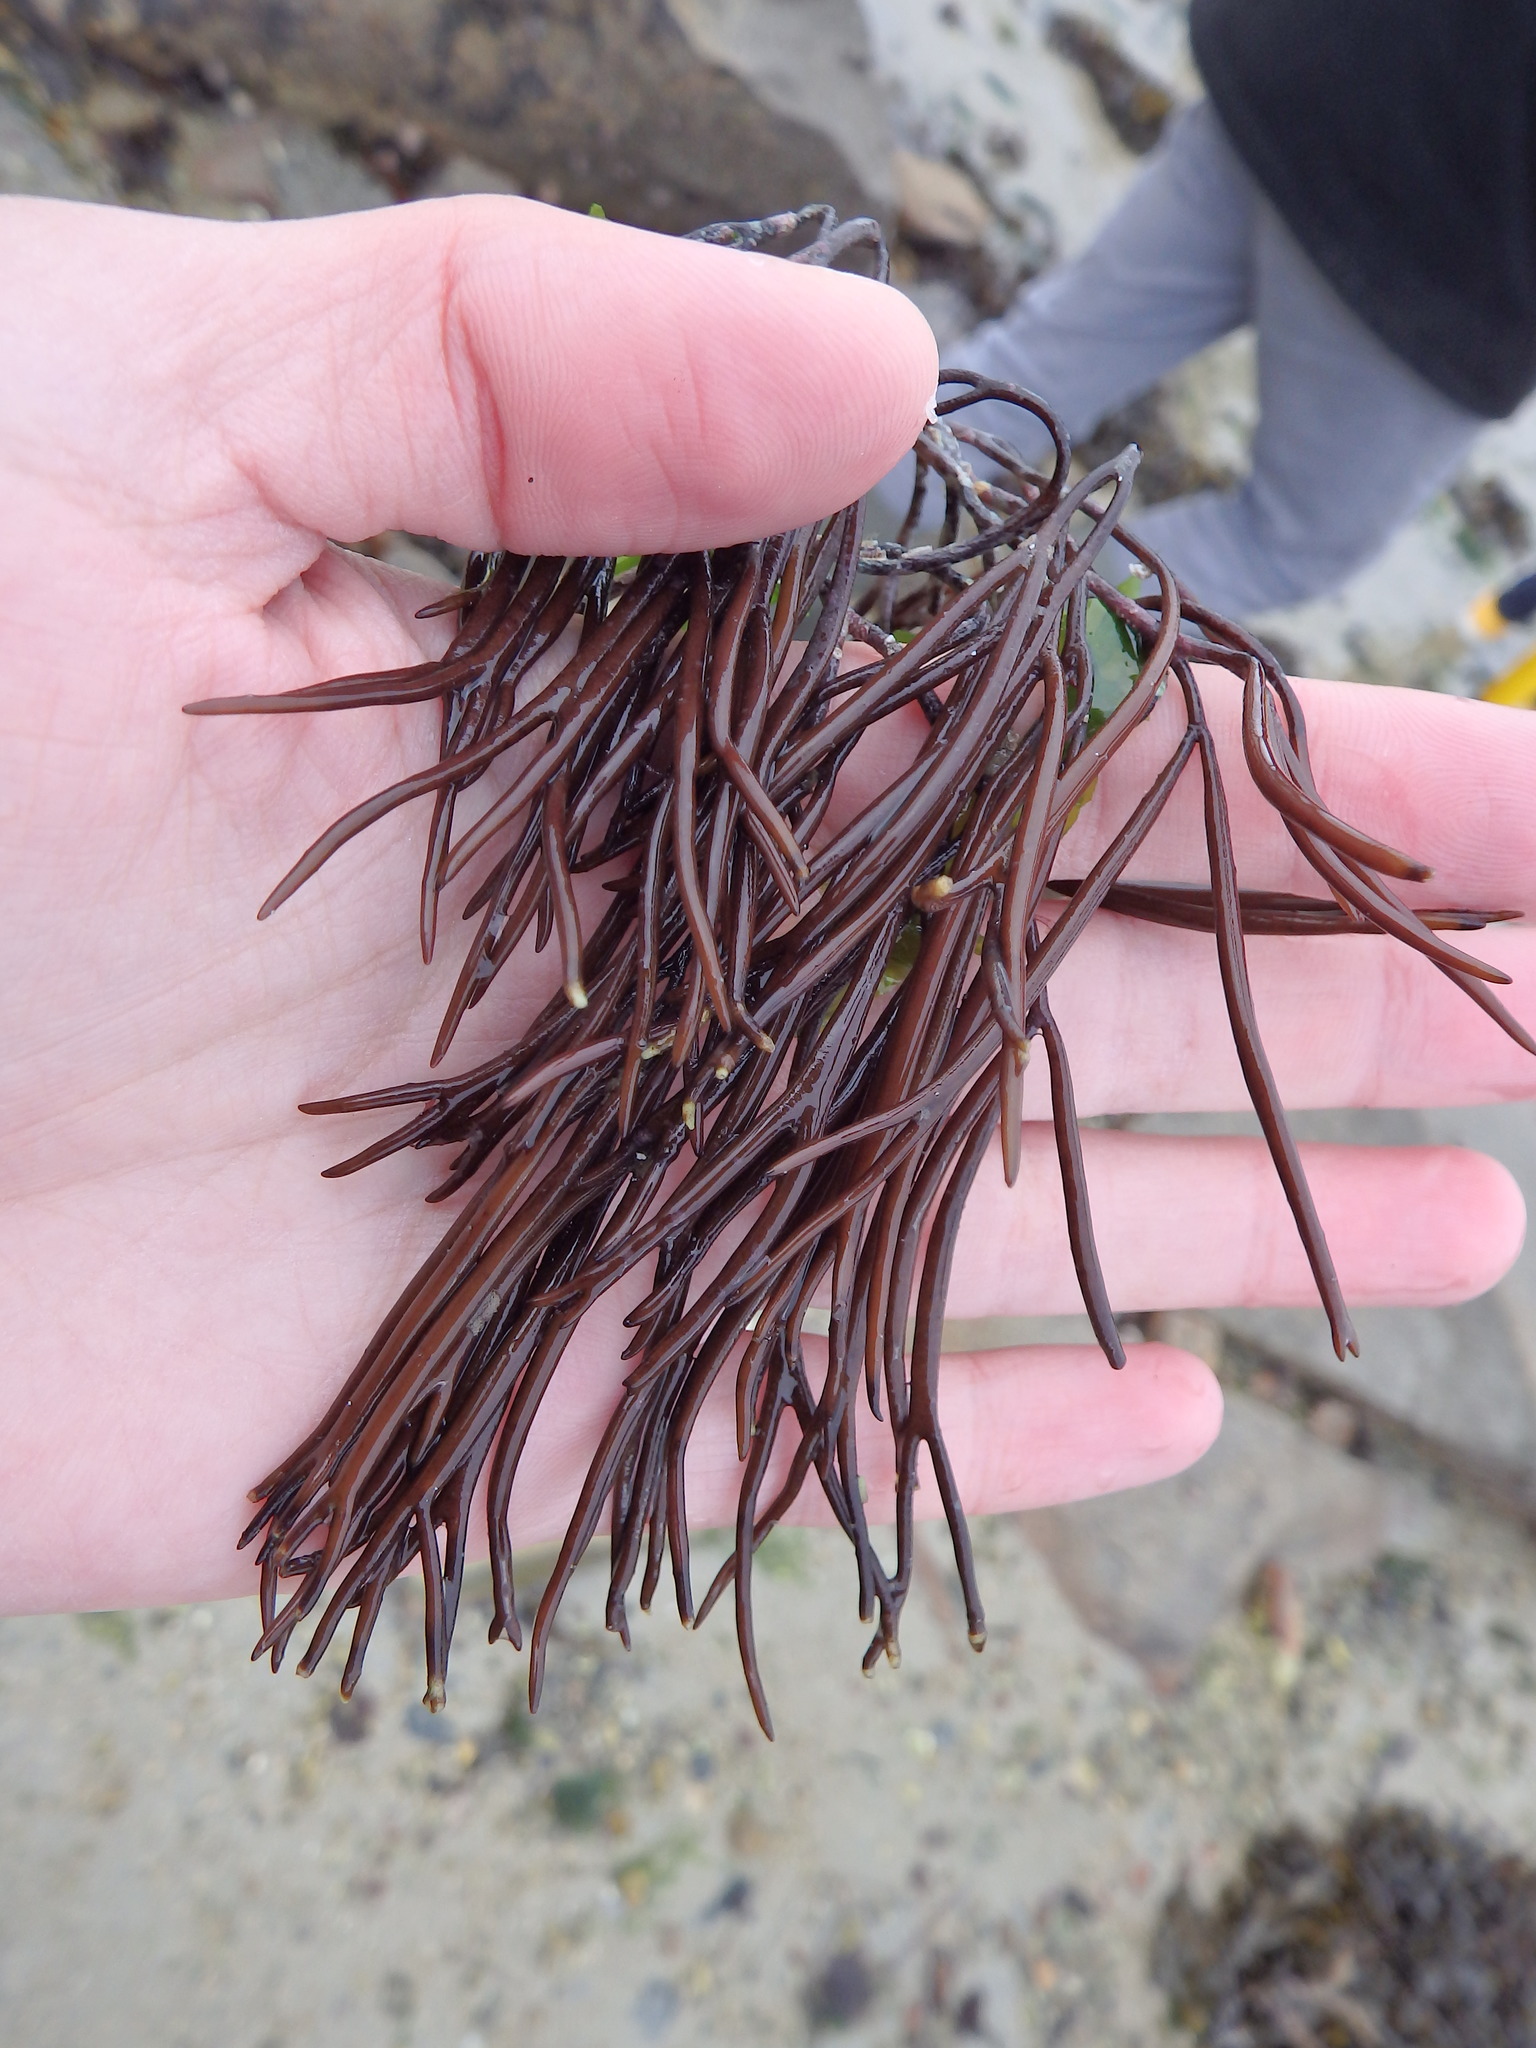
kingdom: Plantae
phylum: Rhodophyta
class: Florideophyceae
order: Gigartinales
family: Furcellariaceae
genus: Furcellaria
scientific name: Furcellaria lumbricalis
